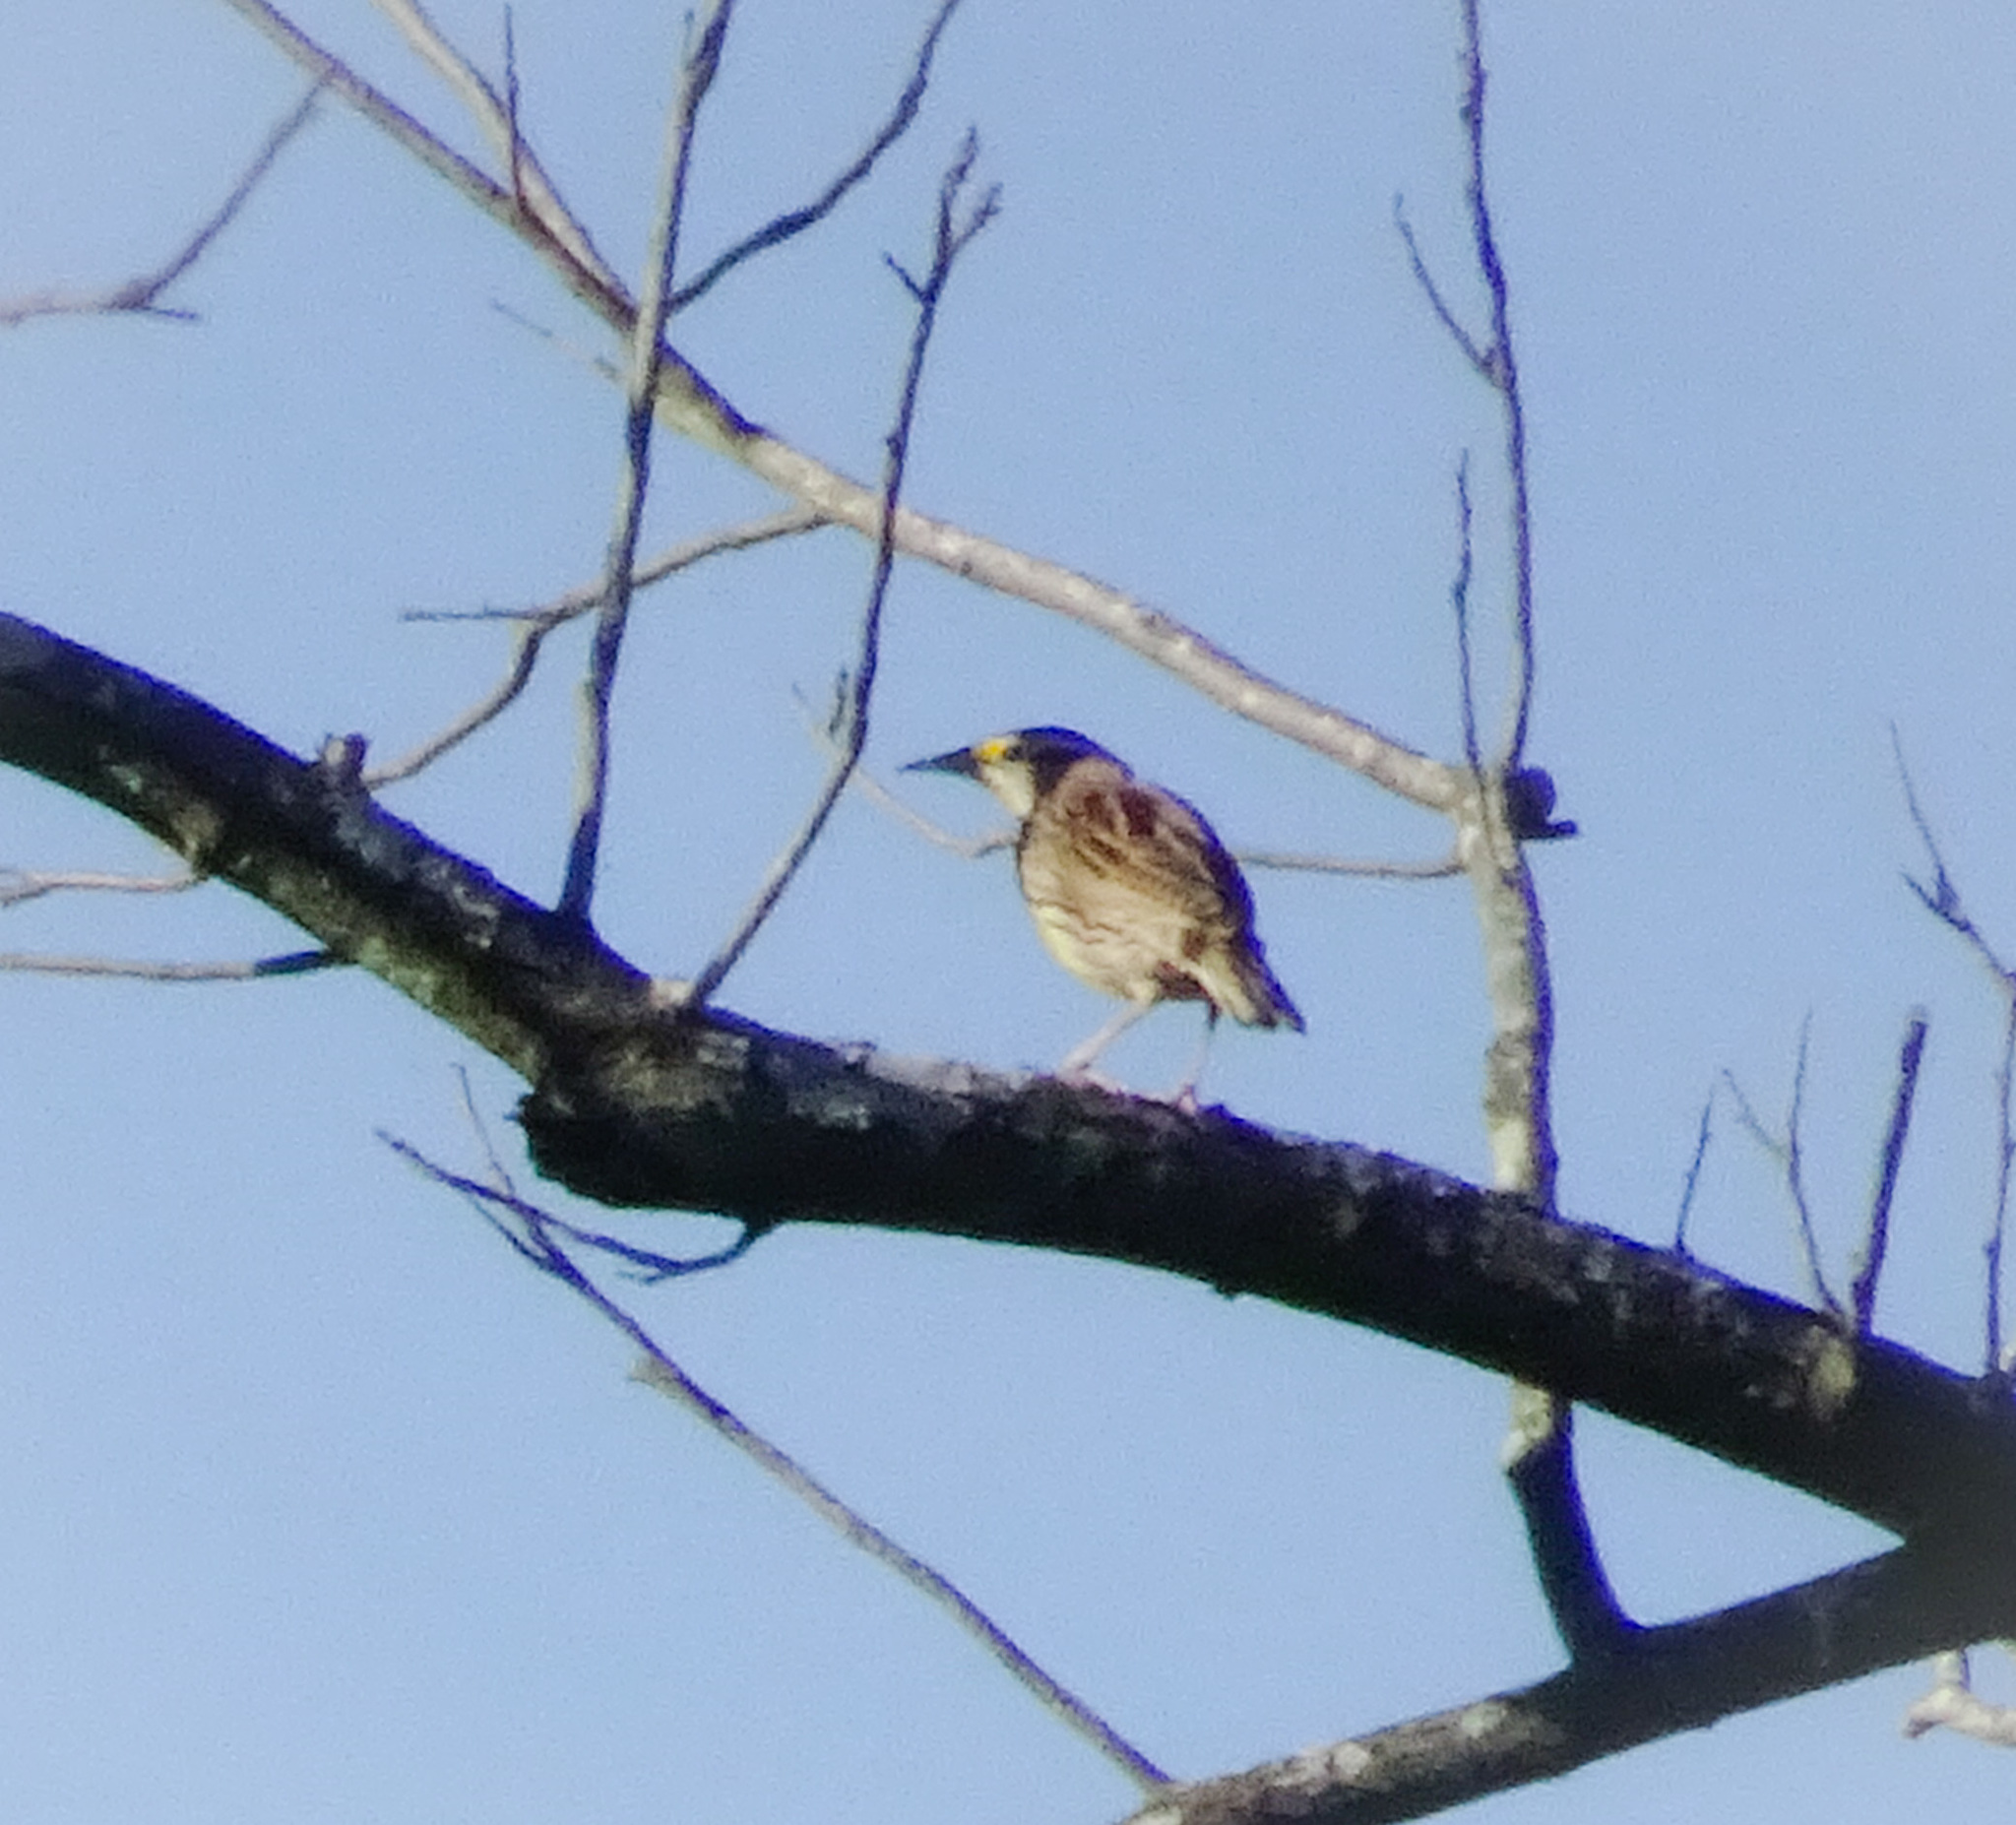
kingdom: Animalia
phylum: Chordata
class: Aves
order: Passeriformes
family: Icteridae
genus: Sturnella
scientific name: Sturnella magna
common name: Eastern meadowlark
